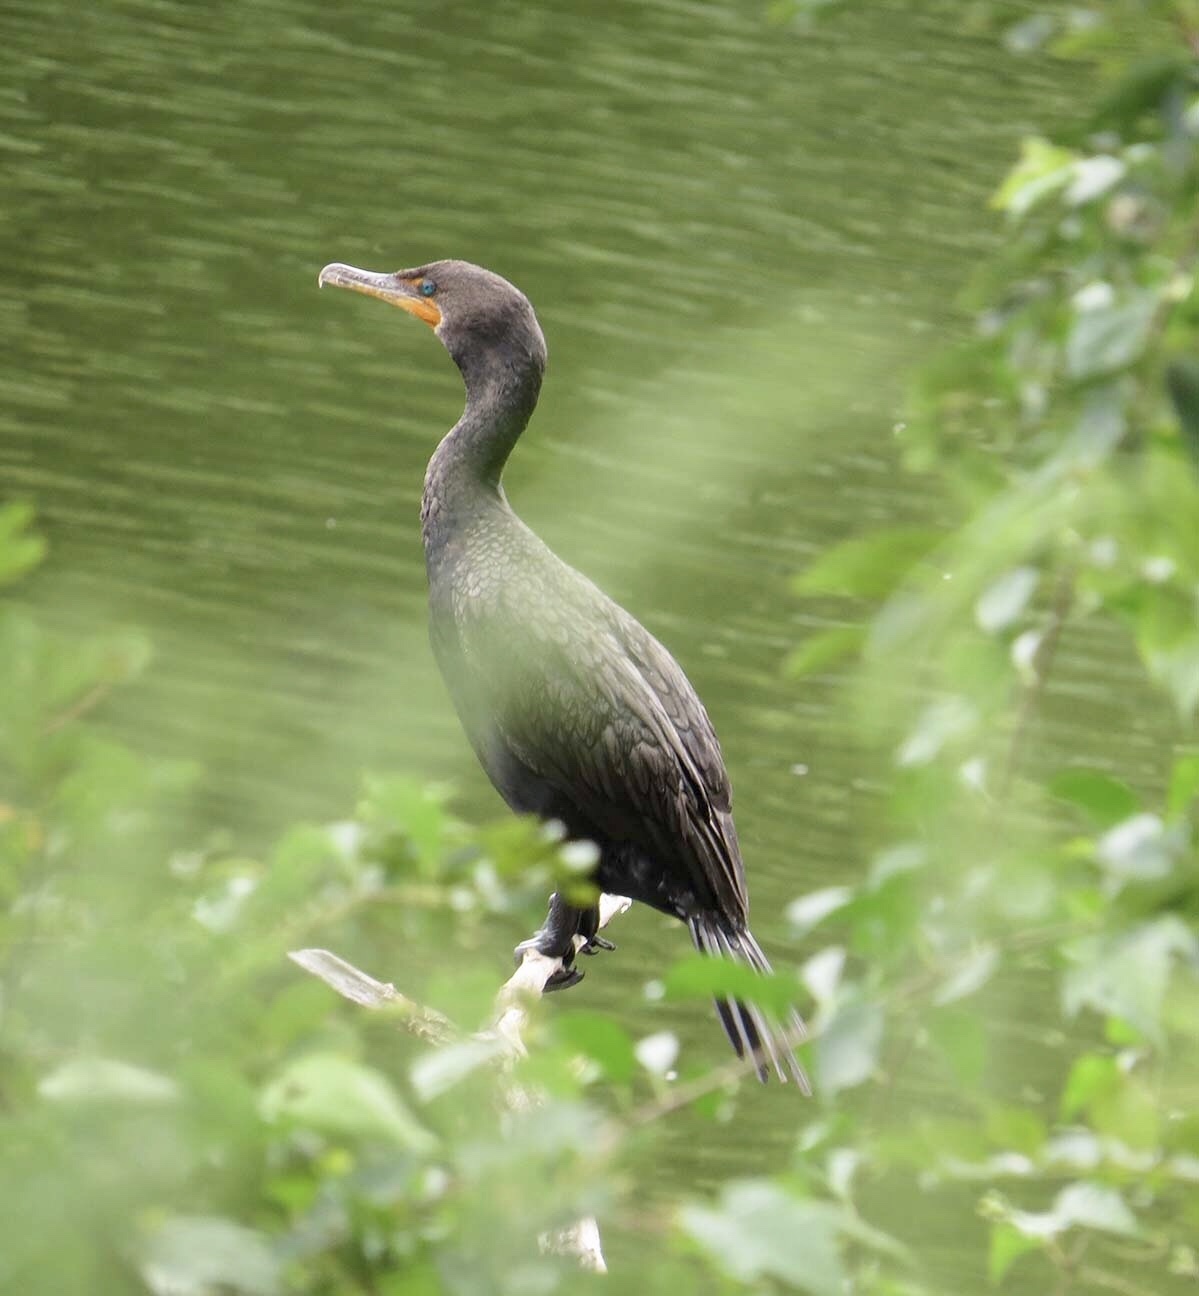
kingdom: Animalia
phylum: Chordata
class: Aves
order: Suliformes
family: Phalacrocoracidae
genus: Phalacrocorax
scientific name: Phalacrocorax auritus
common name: Double-crested cormorant
